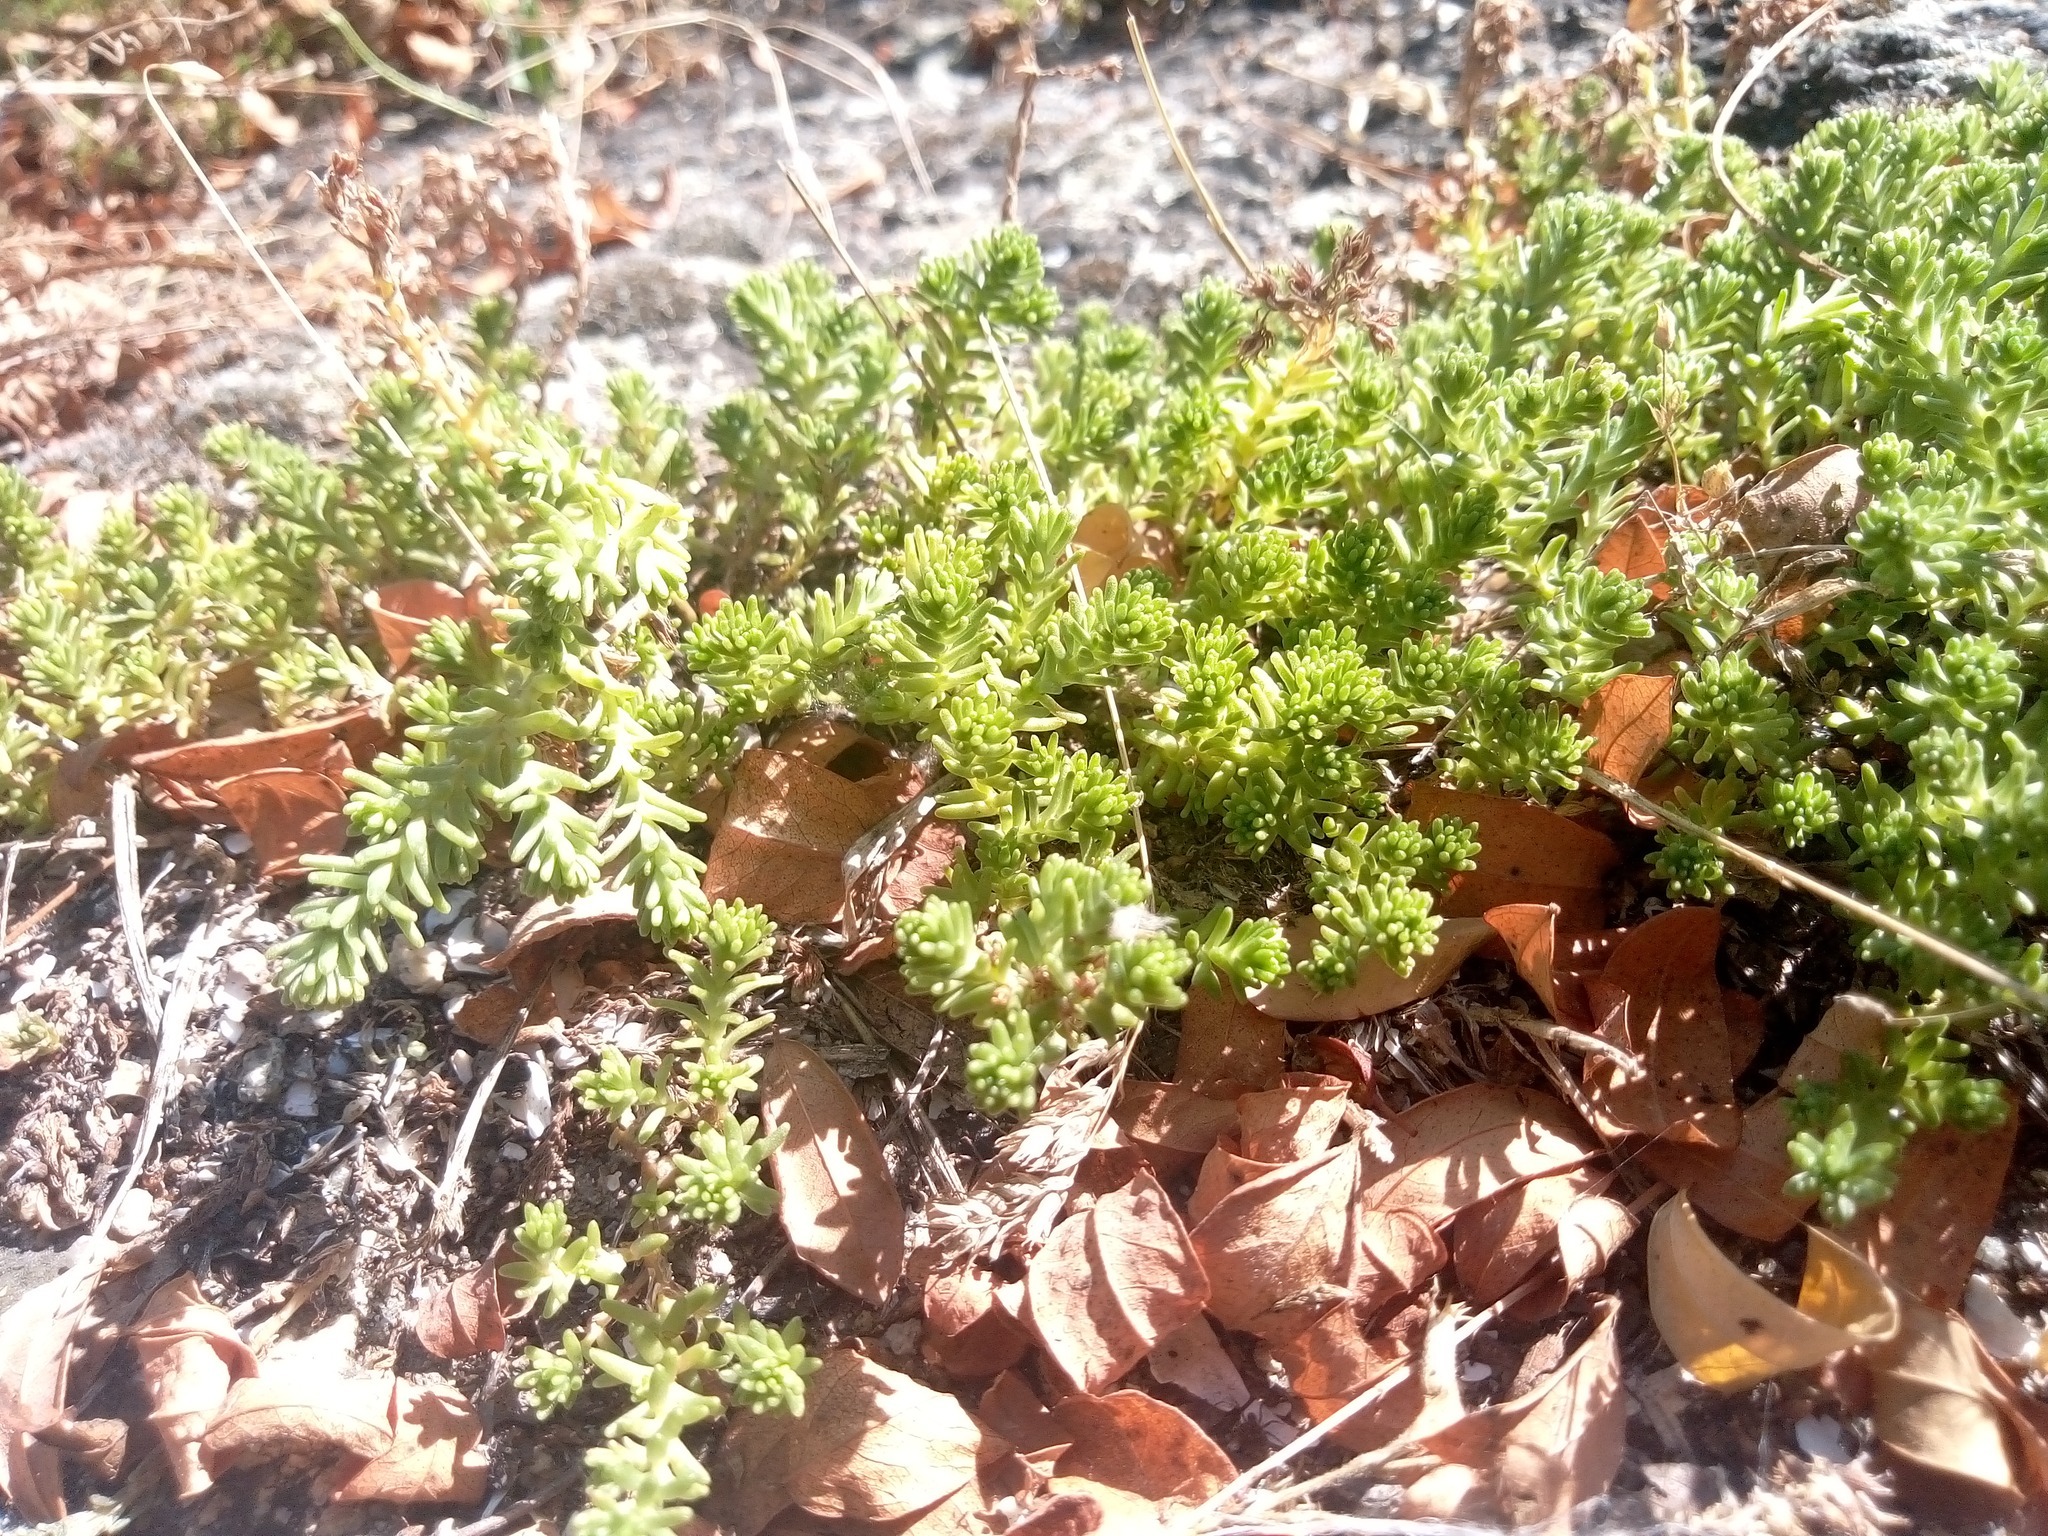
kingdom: Plantae
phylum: Tracheophyta
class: Magnoliopsida
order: Saxifragales
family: Crassulaceae
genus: Sedum
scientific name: Sedum sexangulare
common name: Tasteless stonecrop
